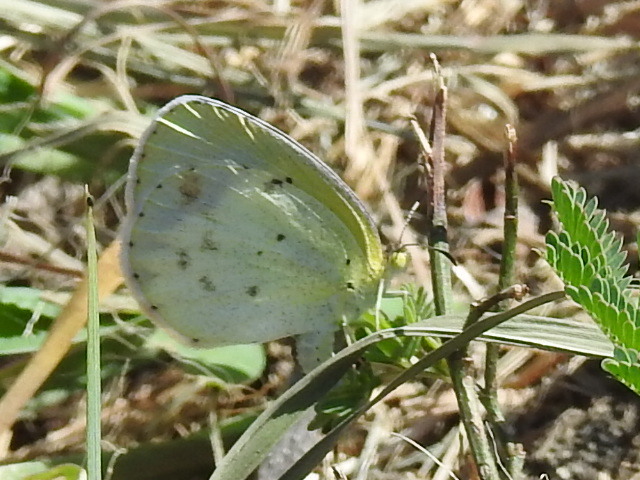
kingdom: Animalia
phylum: Arthropoda
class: Insecta
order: Lepidoptera
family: Pieridae
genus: Pyrisitia
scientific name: Pyrisitia lisa
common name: Little yellow
